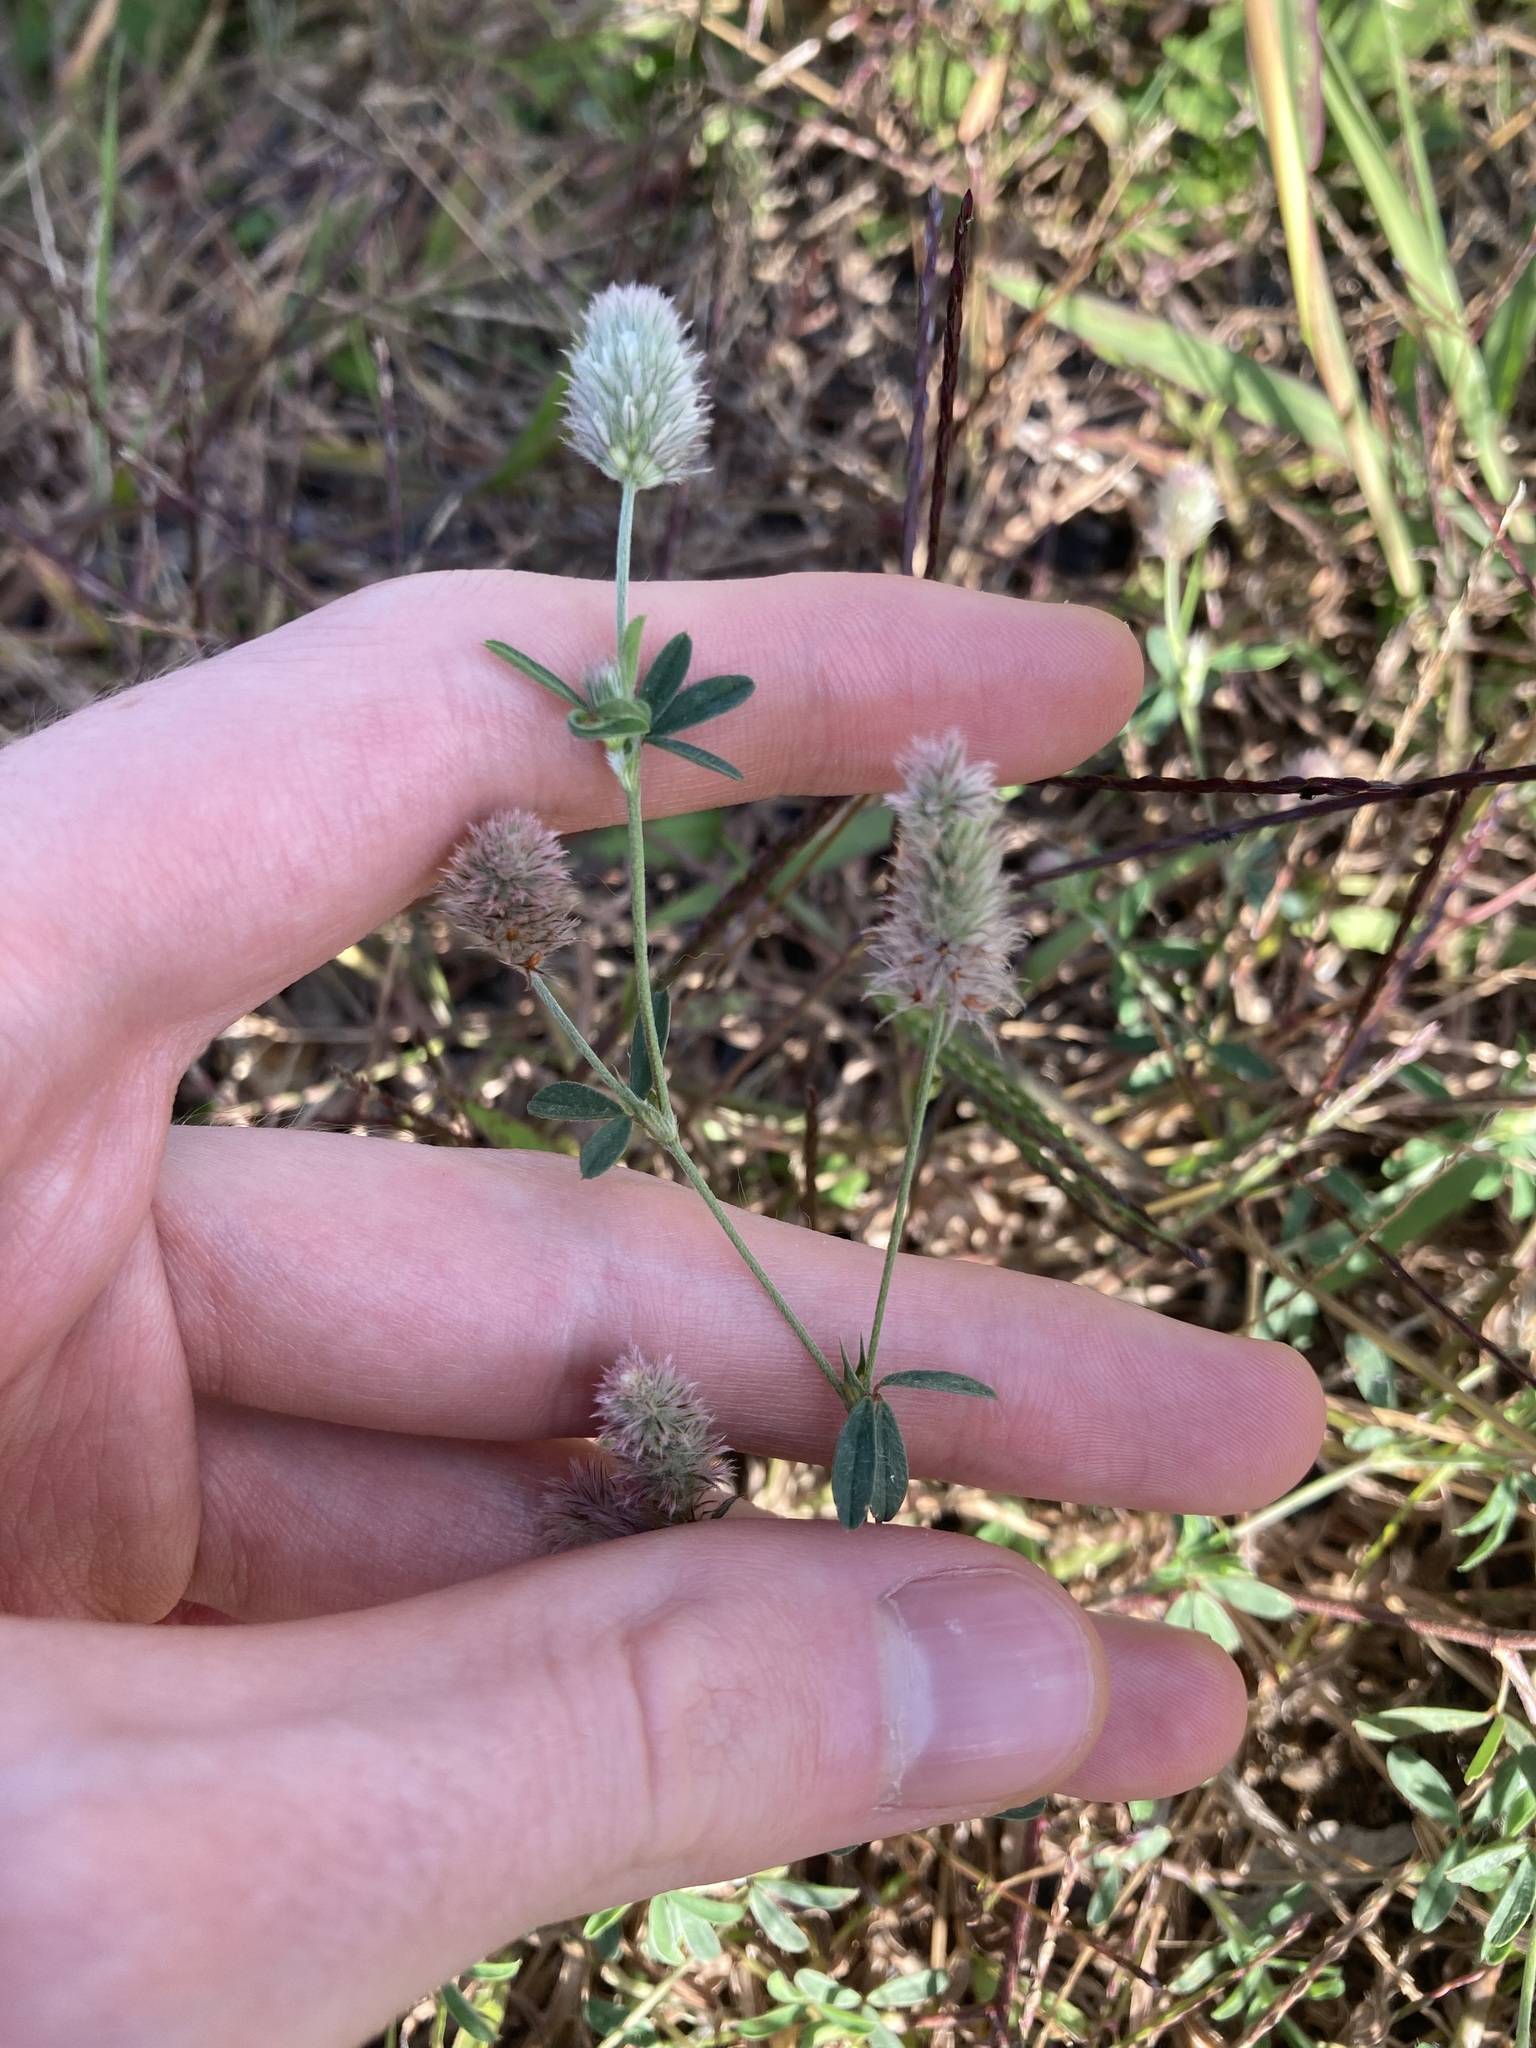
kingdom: Plantae
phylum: Tracheophyta
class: Magnoliopsida
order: Fabales
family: Fabaceae
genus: Trifolium
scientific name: Trifolium arvense
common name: Hare's-foot clover
